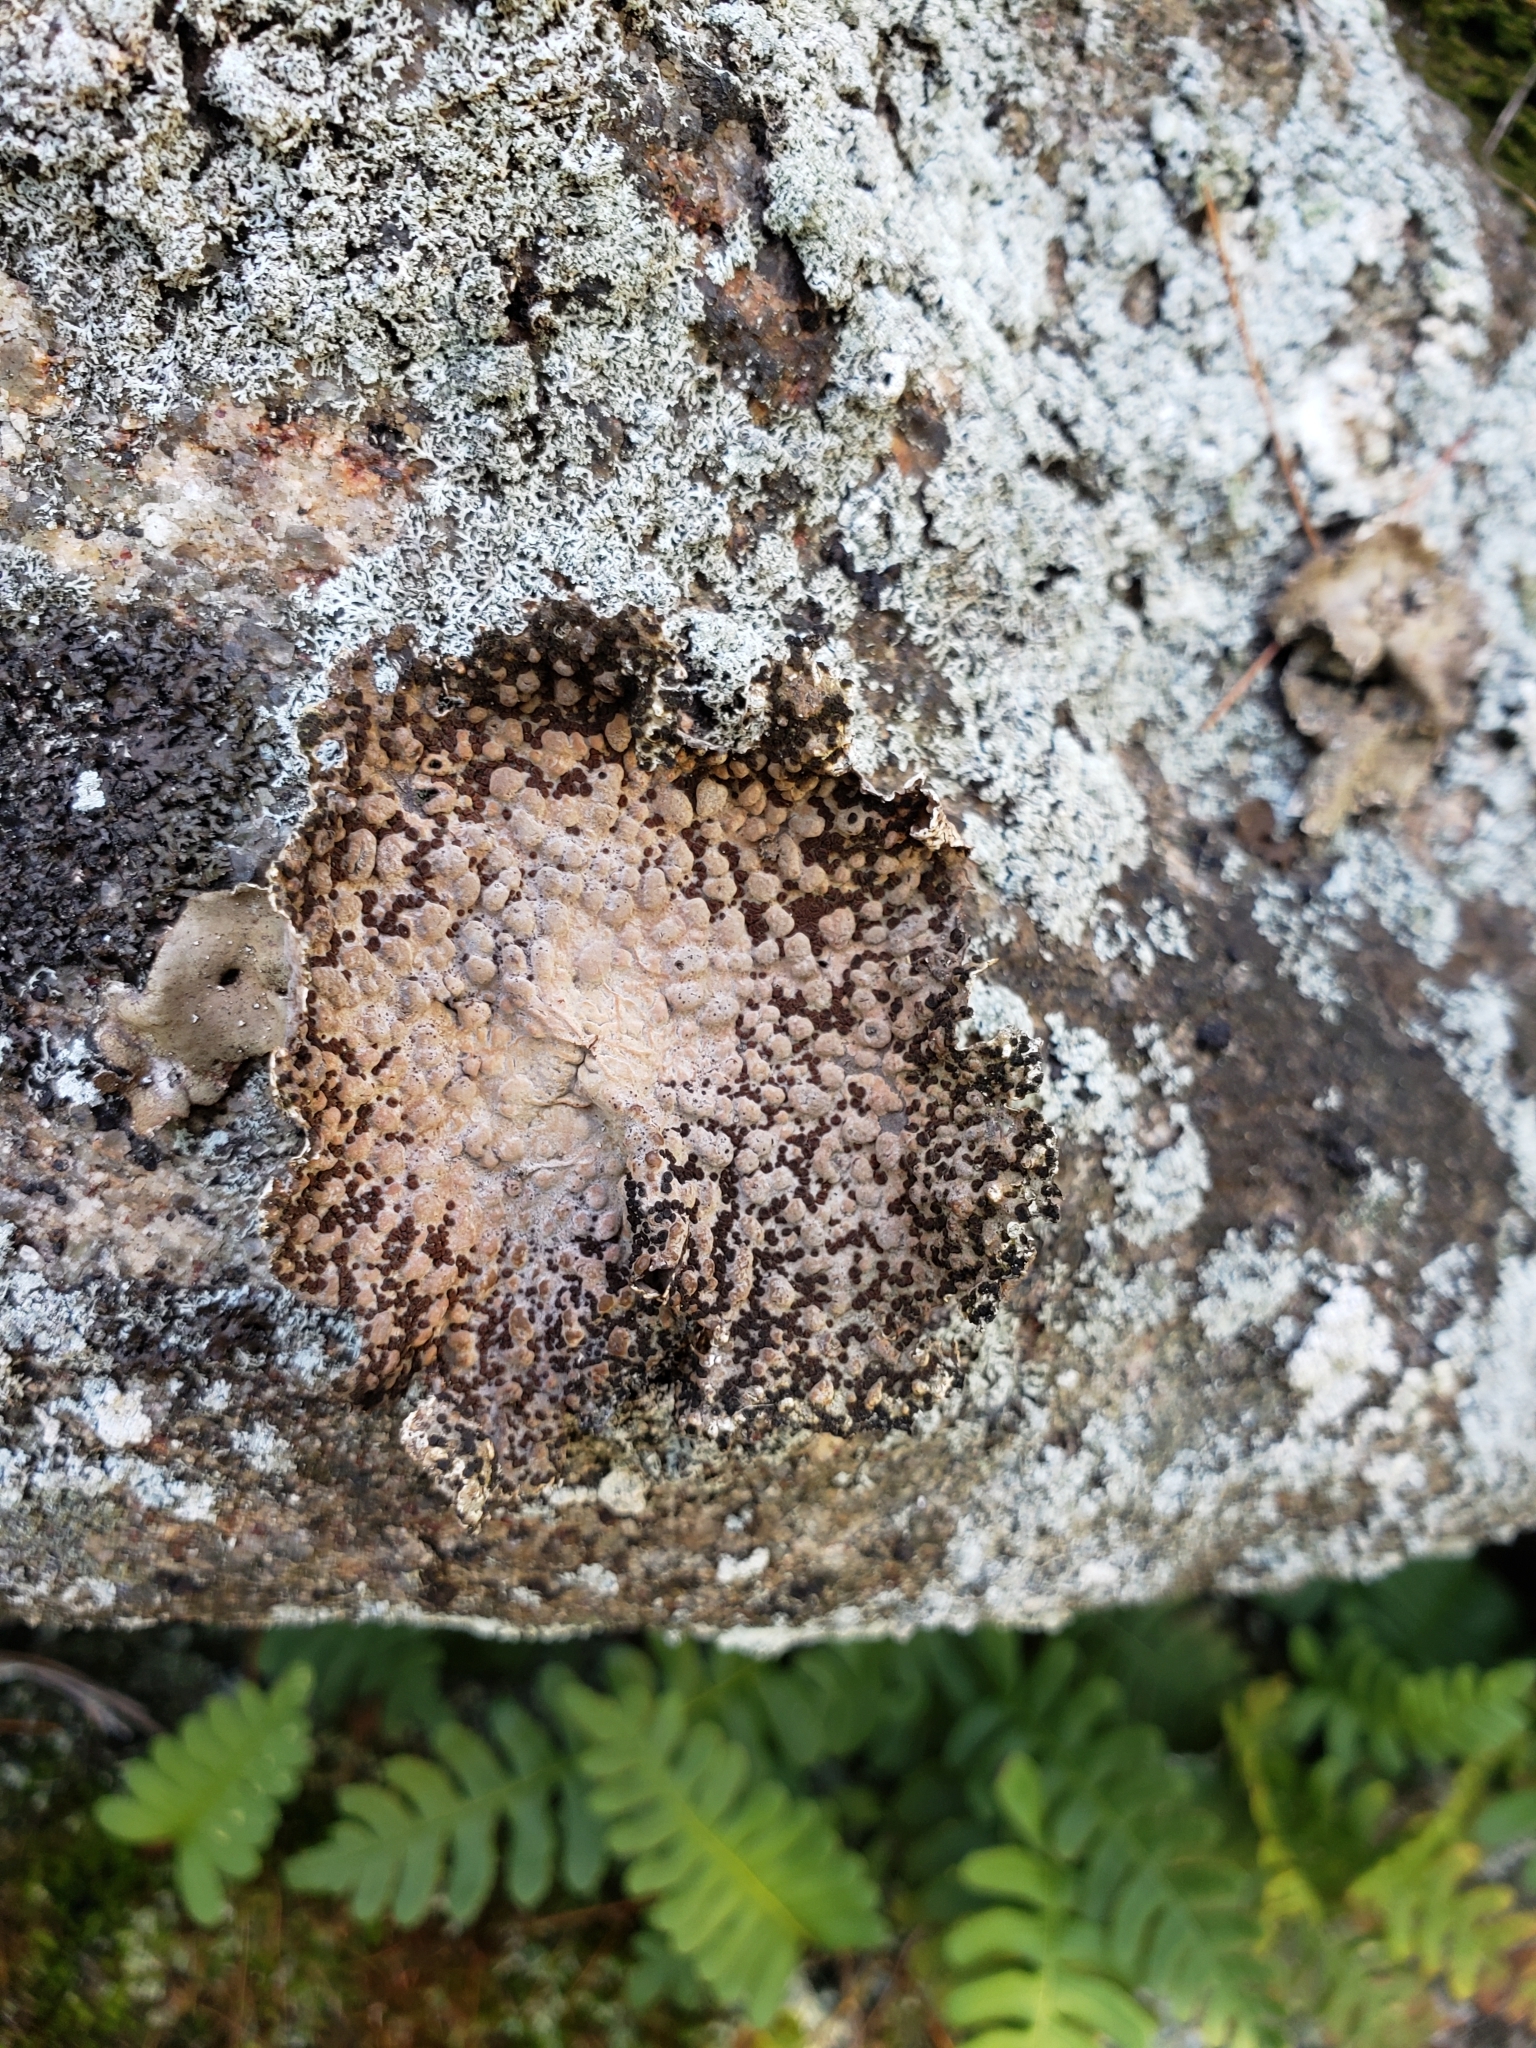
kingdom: Fungi
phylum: Ascomycota
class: Lecanoromycetes
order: Umbilicariales
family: Umbilicariaceae
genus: Lasallia
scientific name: Lasallia papulosa
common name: Common toadskin lichen
